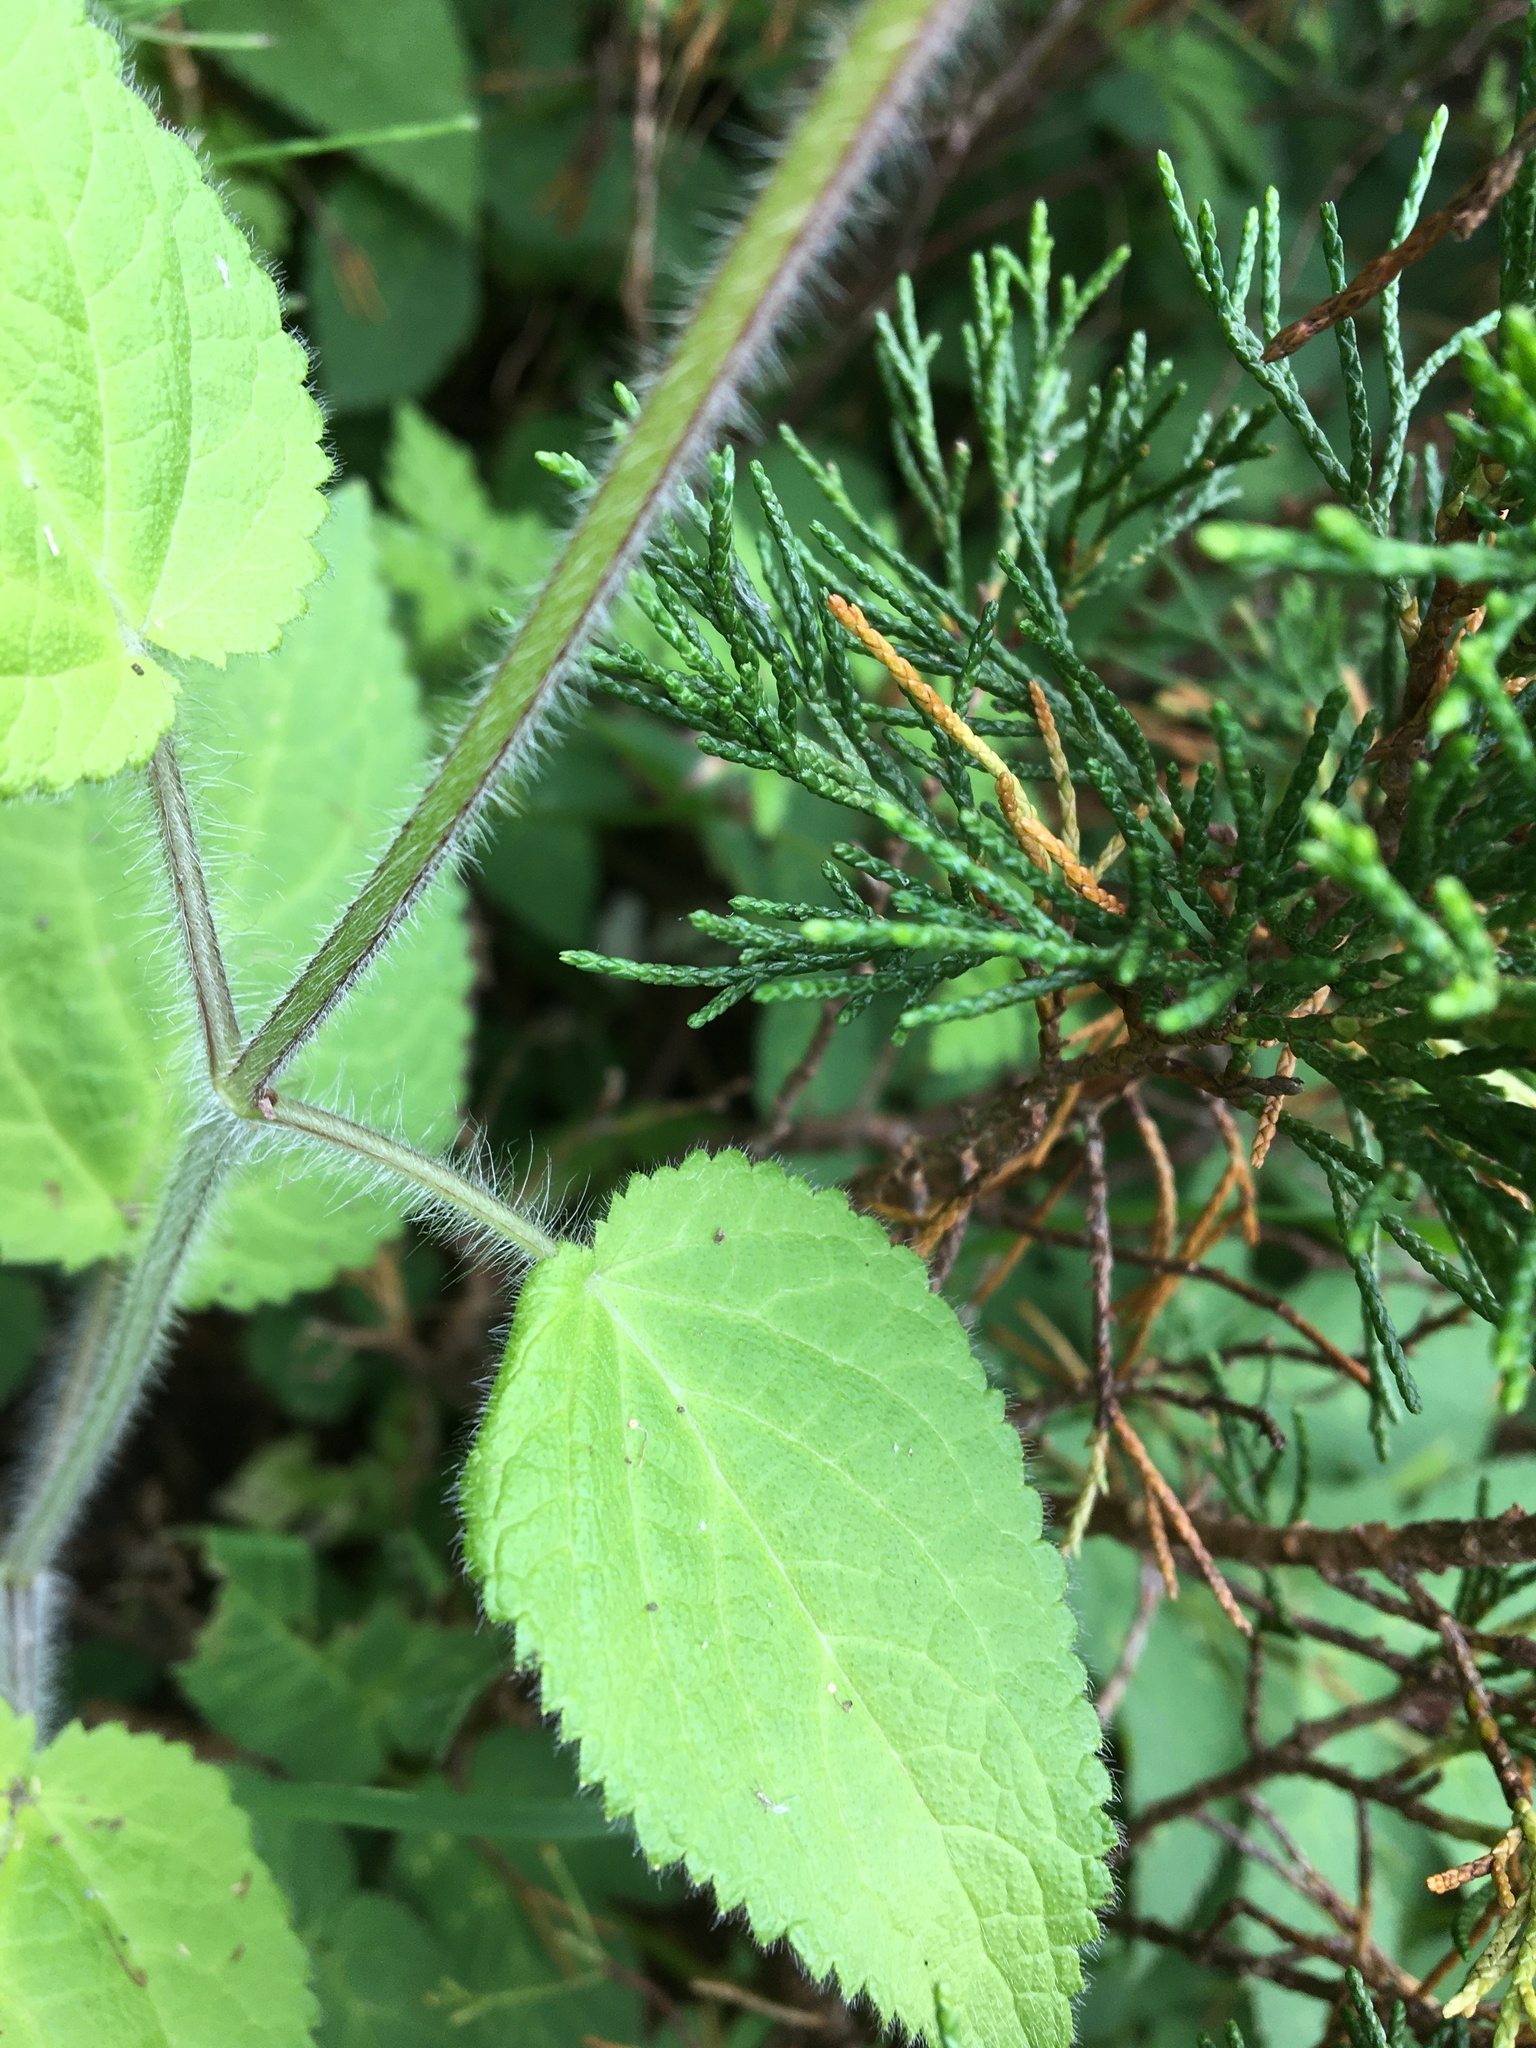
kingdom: Plantae
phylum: Tracheophyta
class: Magnoliopsida
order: Lamiales
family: Lamiaceae
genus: Stachys
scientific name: Stachys sylvatica
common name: Hedge woundwort
